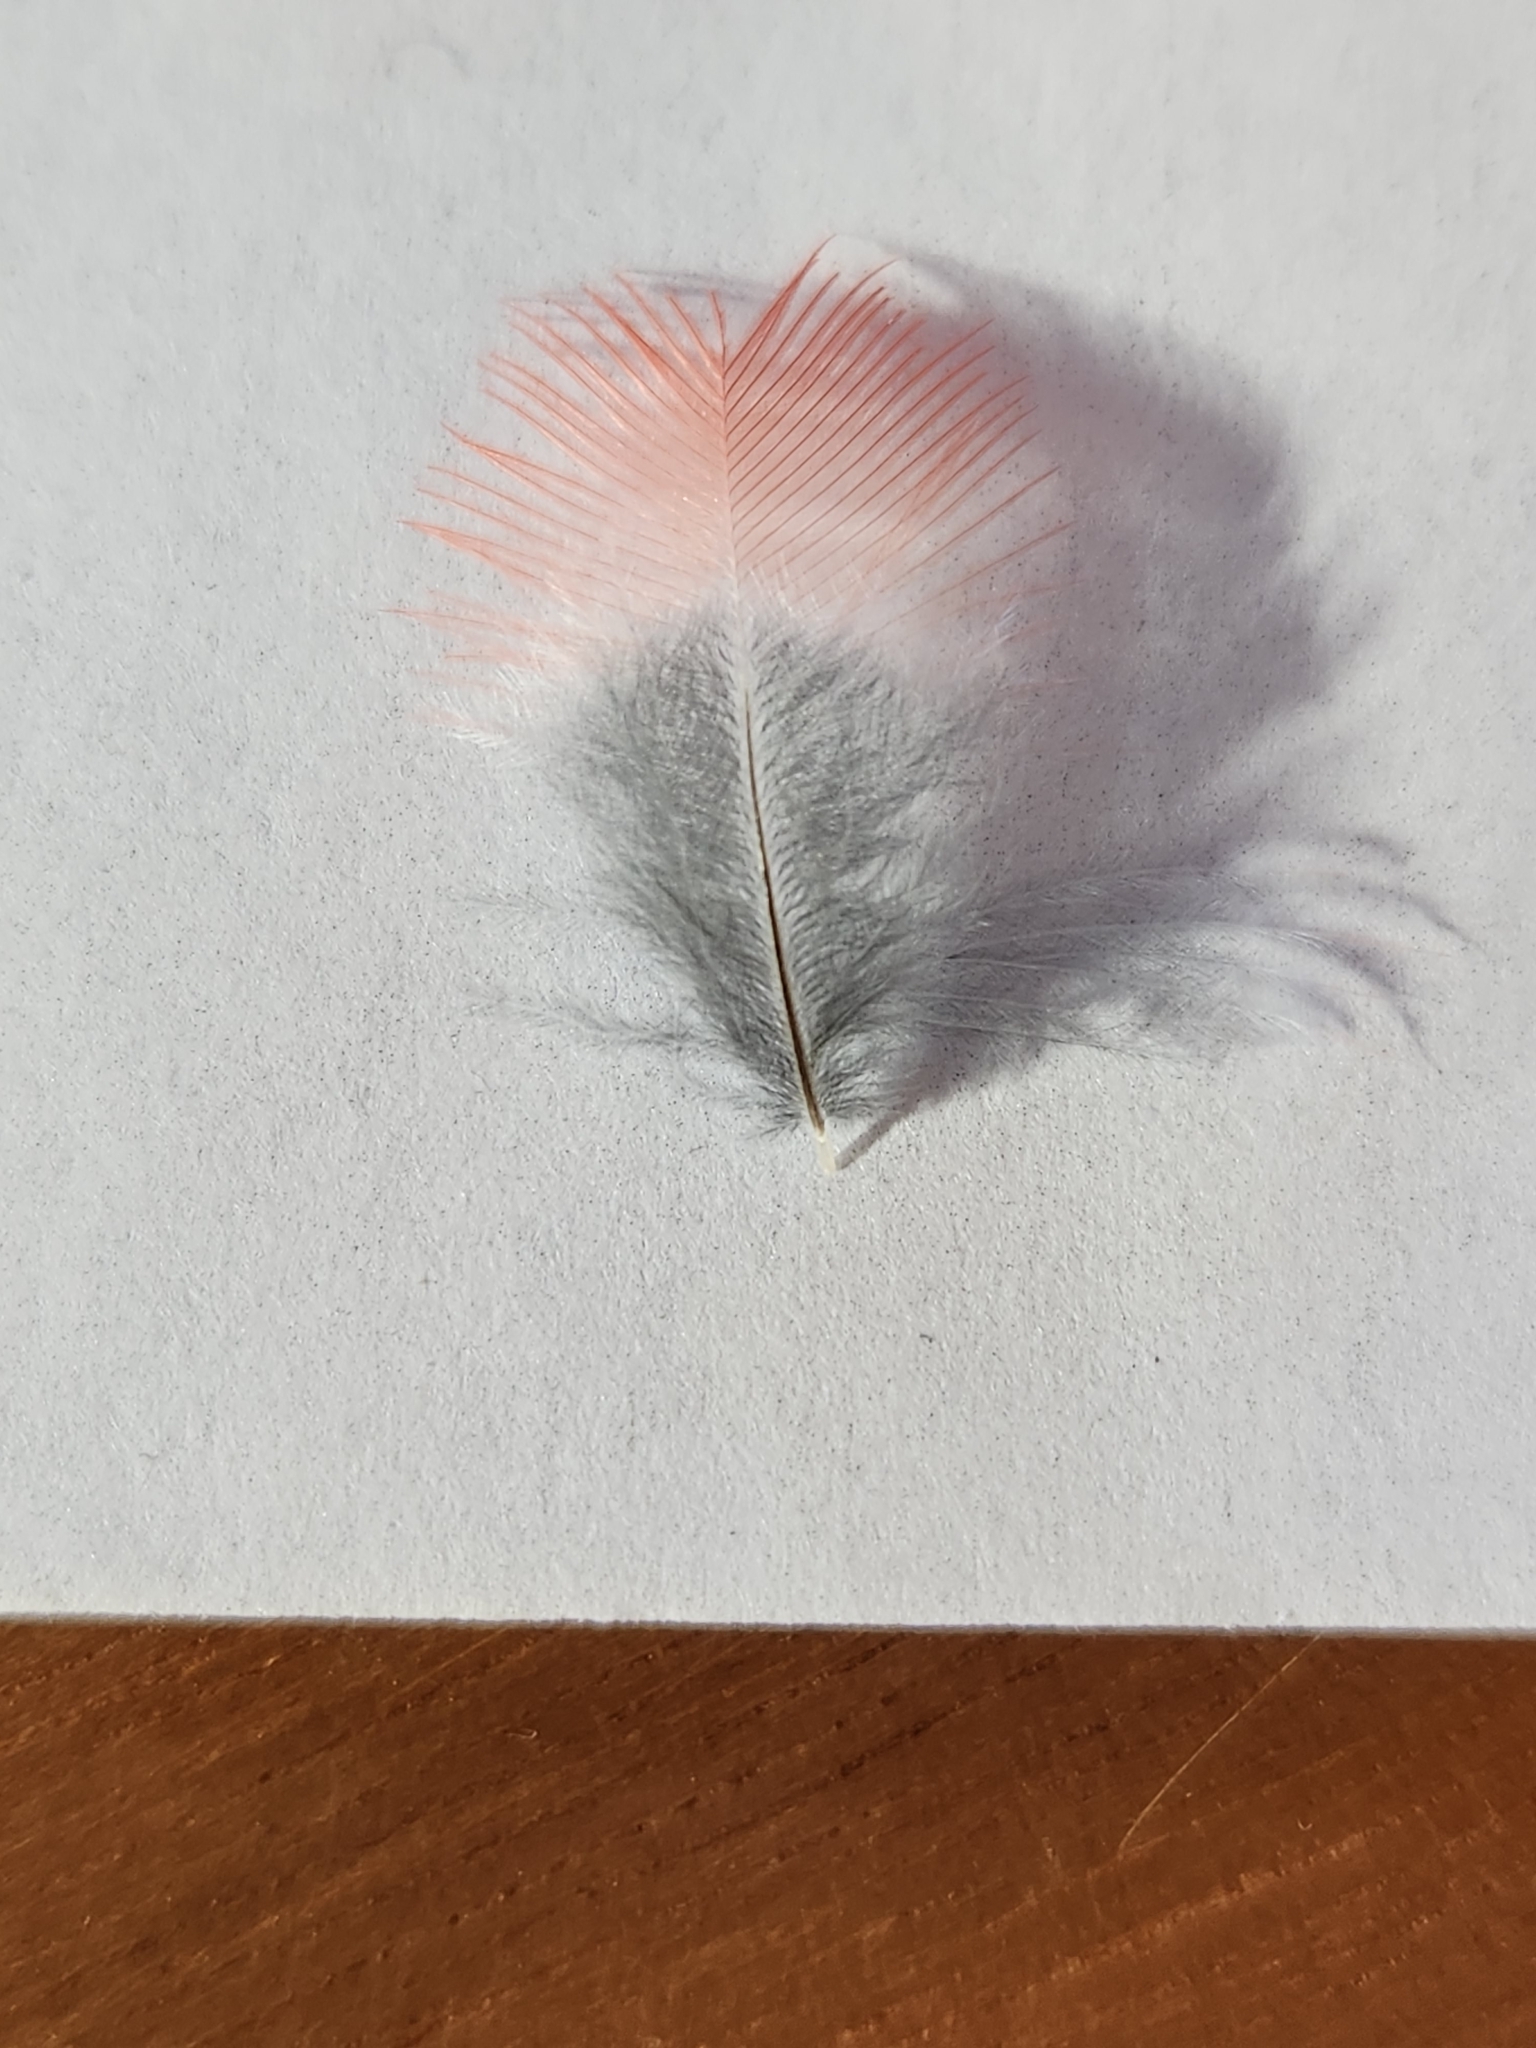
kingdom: Animalia
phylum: Chordata
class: Aves
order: Passeriformes
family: Cardinalidae
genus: Cardinalis
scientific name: Cardinalis cardinalis
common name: Northern cardinal
